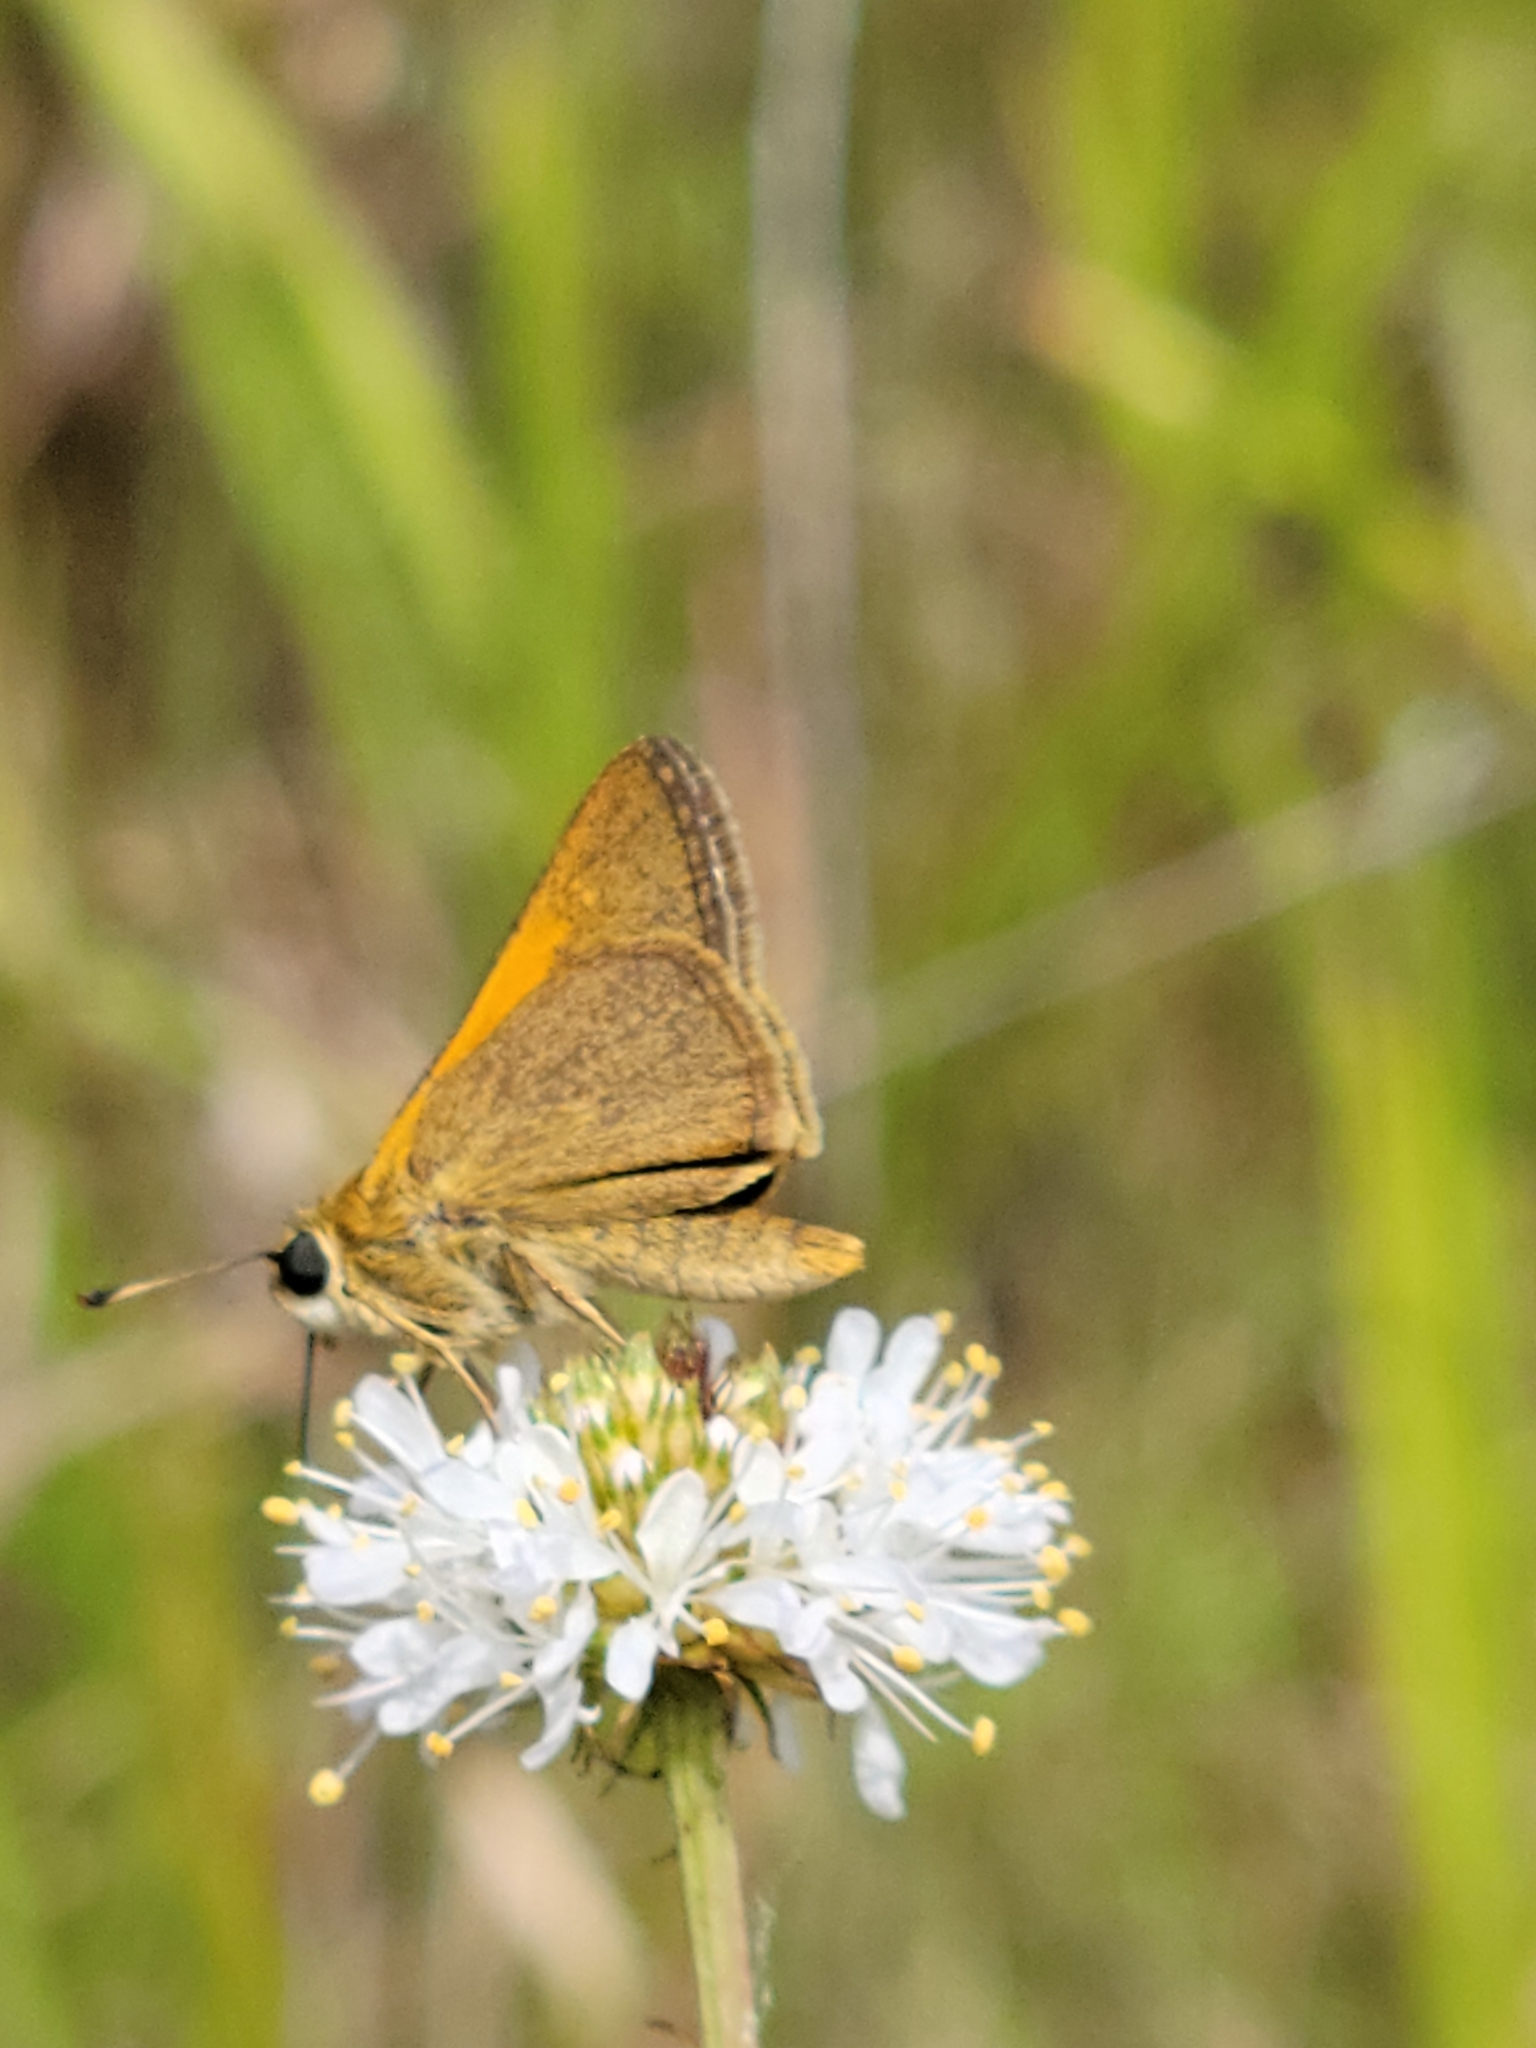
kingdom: Animalia
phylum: Arthropoda
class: Insecta
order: Lepidoptera
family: Hesperiidae
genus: Polites
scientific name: Polites themistocles
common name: Tawny-edged skipper
